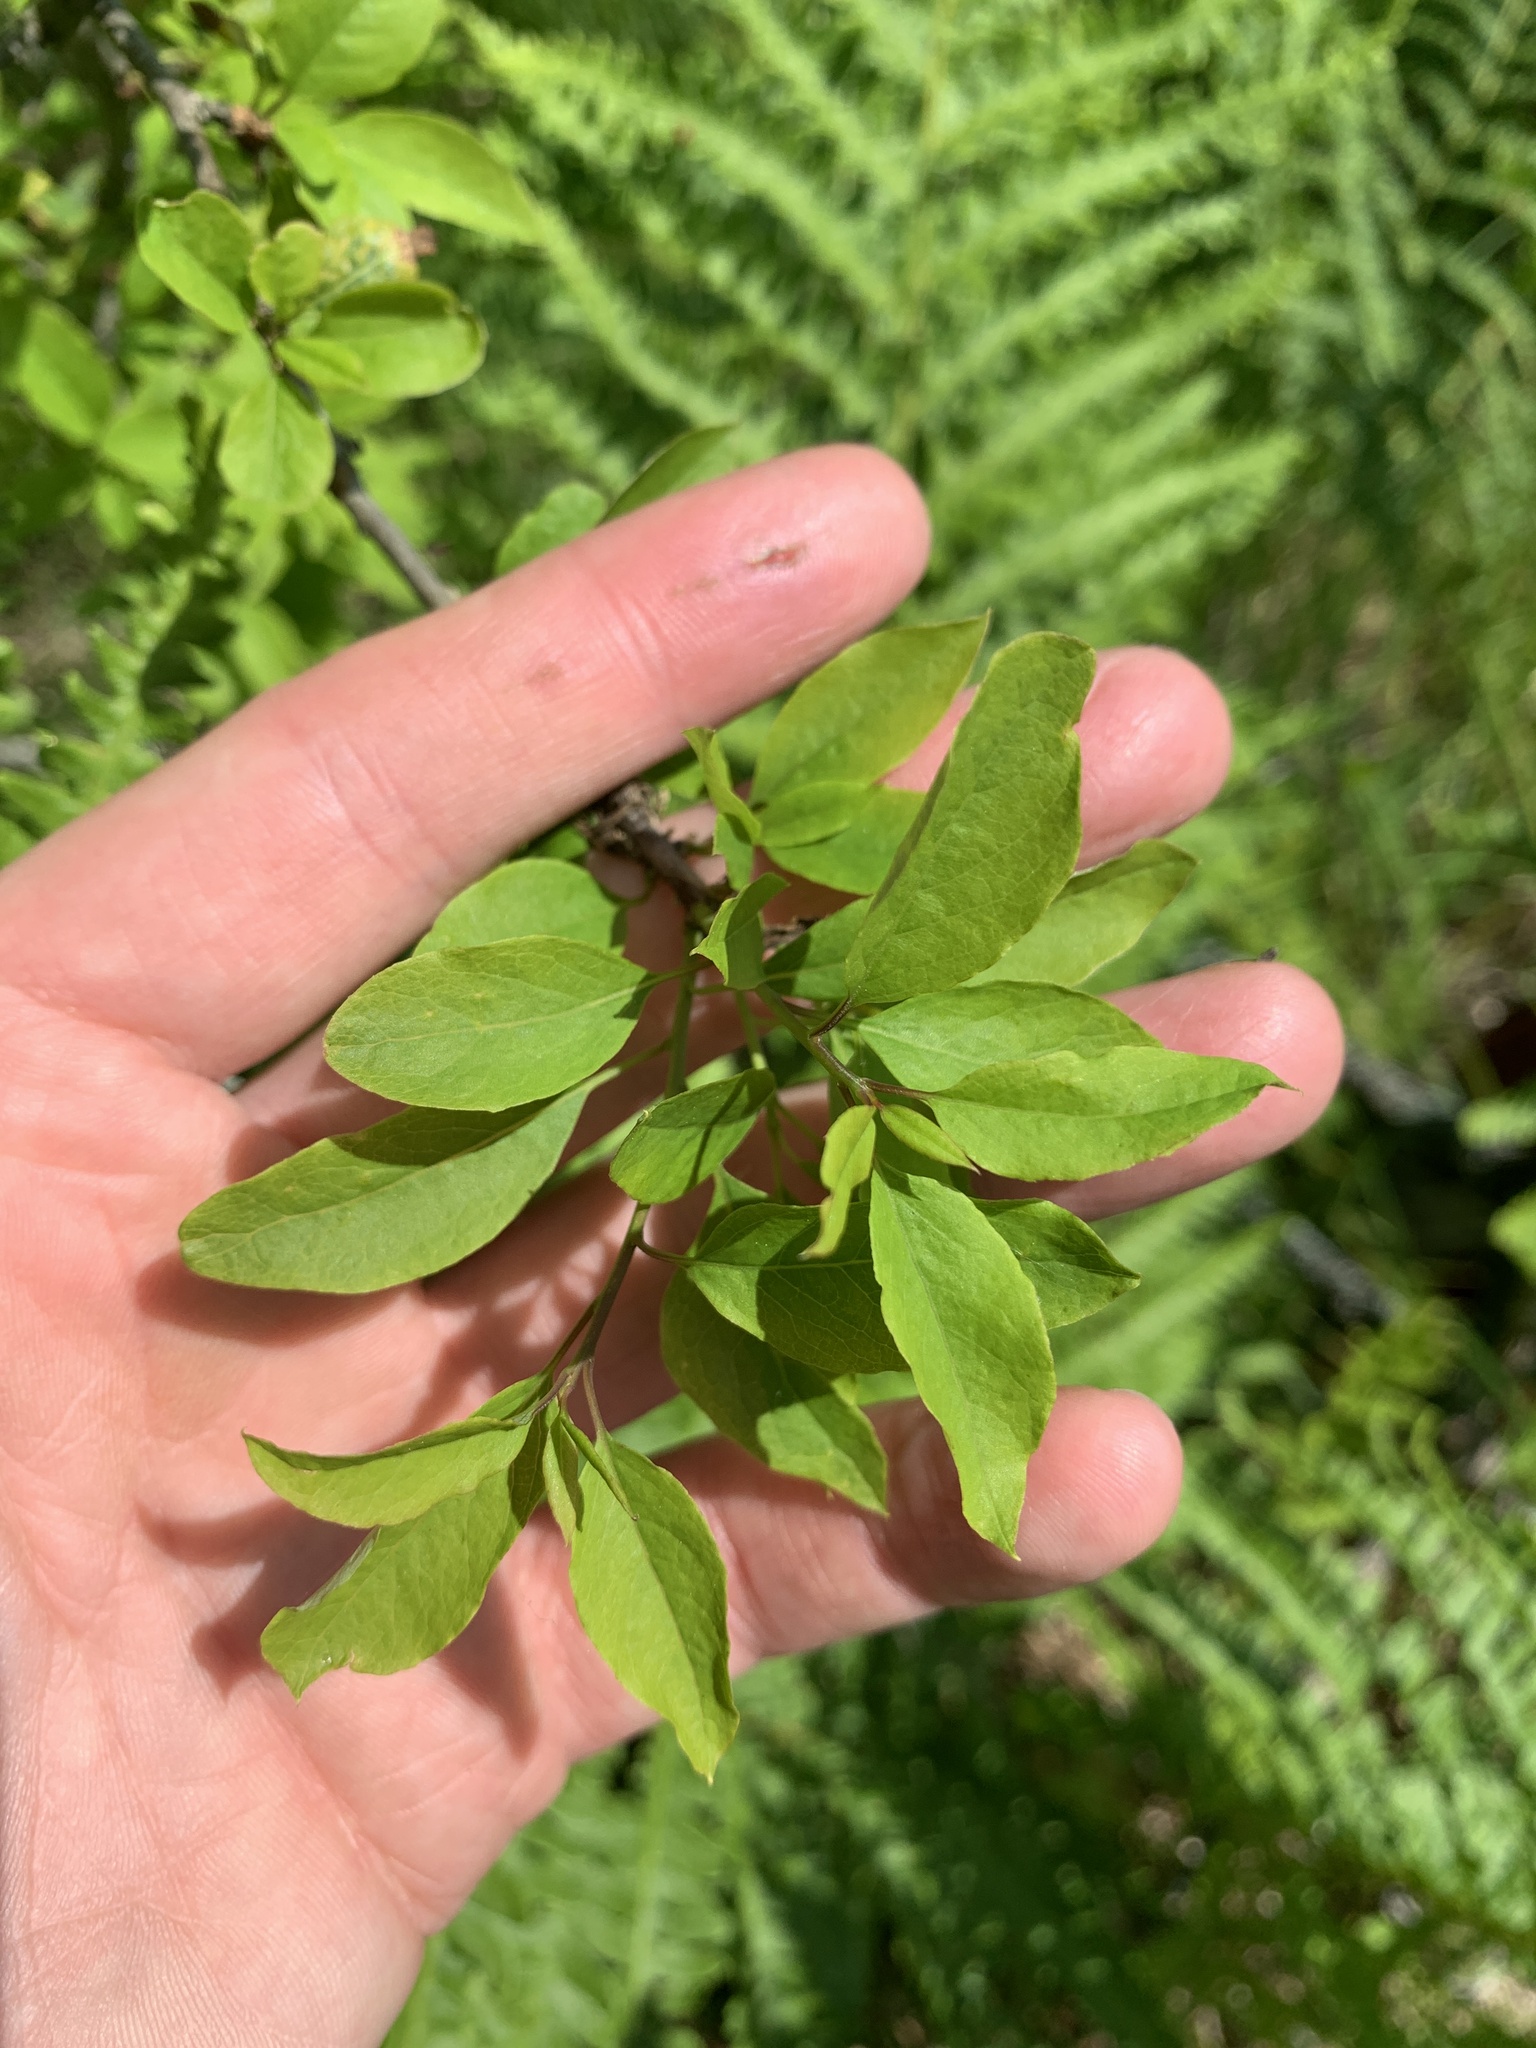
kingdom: Plantae
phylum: Tracheophyta
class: Magnoliopsida
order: Aquifoliales
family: Aquifoliaceae
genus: Ilex
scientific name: Ilex mucronata
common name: Catberry
